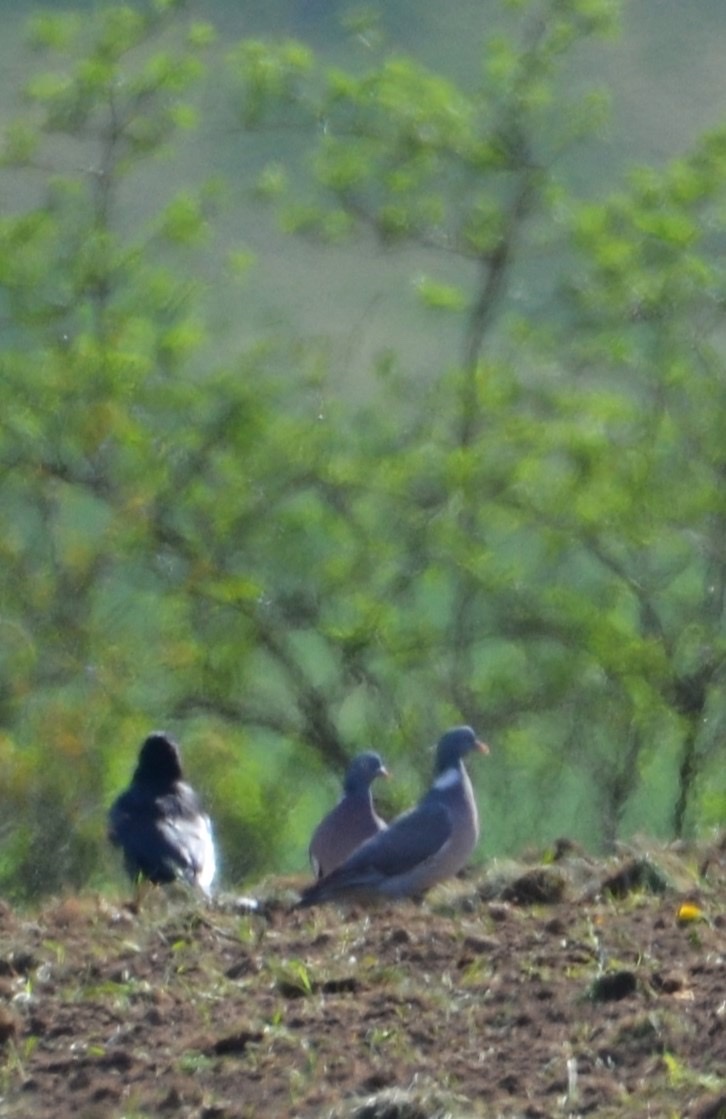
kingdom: Animalia
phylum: Chordata
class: Aves
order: Columbiformes
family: Columbidae
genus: Columba
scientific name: Columba palumbus
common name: Common wood pigeon
